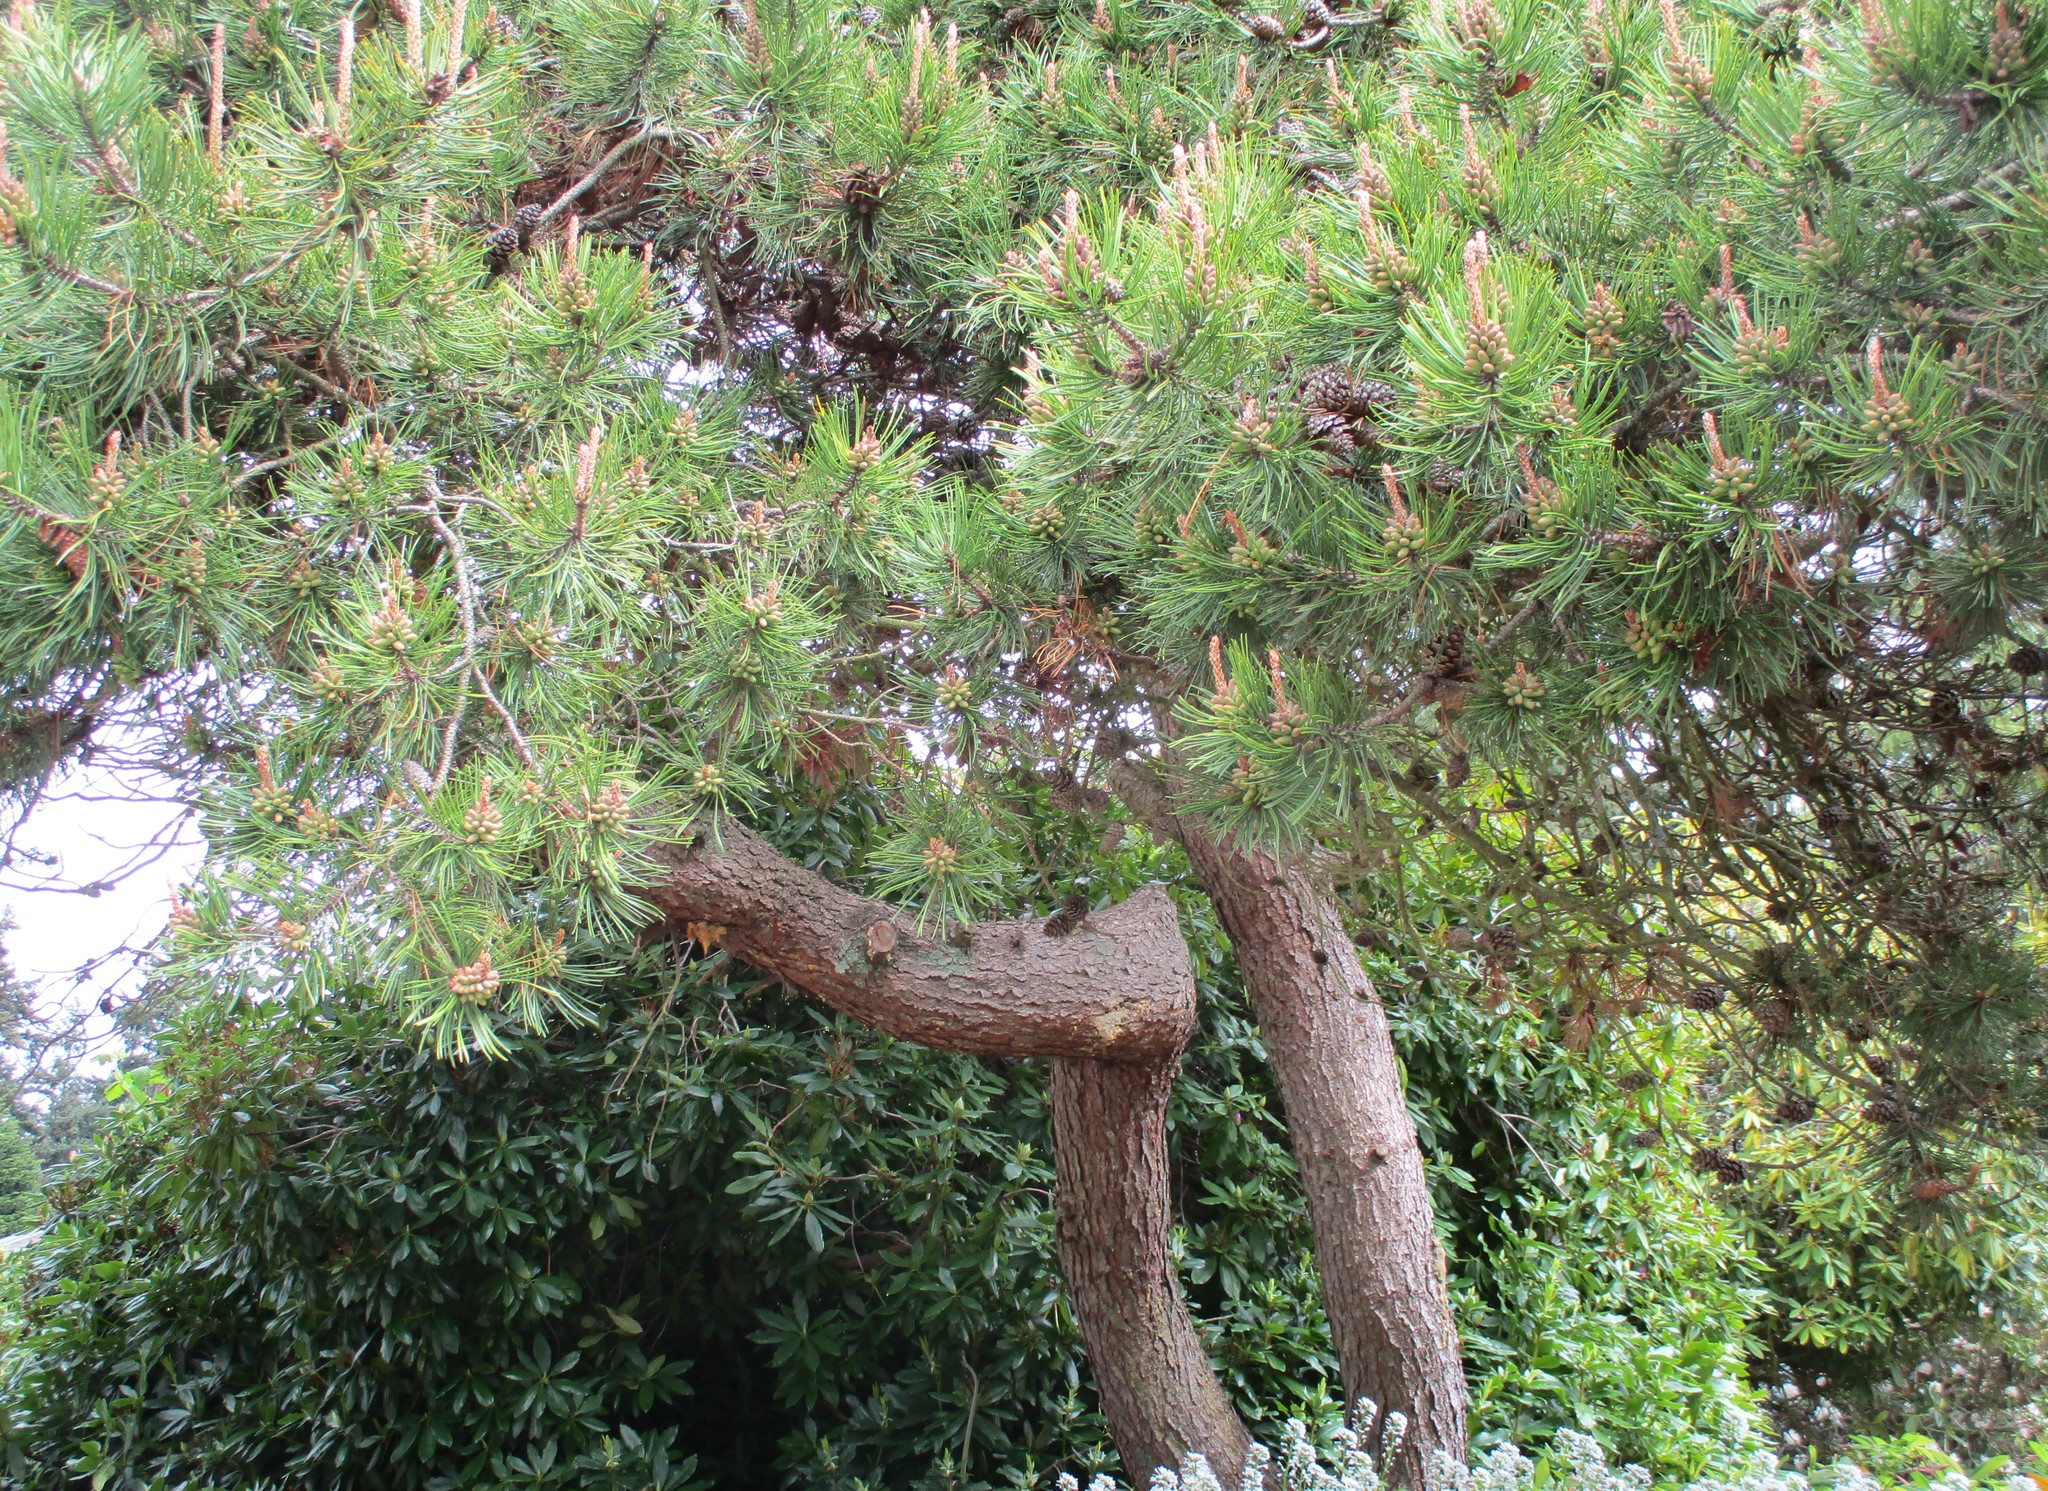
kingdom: Plantae
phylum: Tracheophyta
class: Pinopsida
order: Pinales
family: Pinaceae
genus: Pinus
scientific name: Pinus contorta
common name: Lodgepole pine
